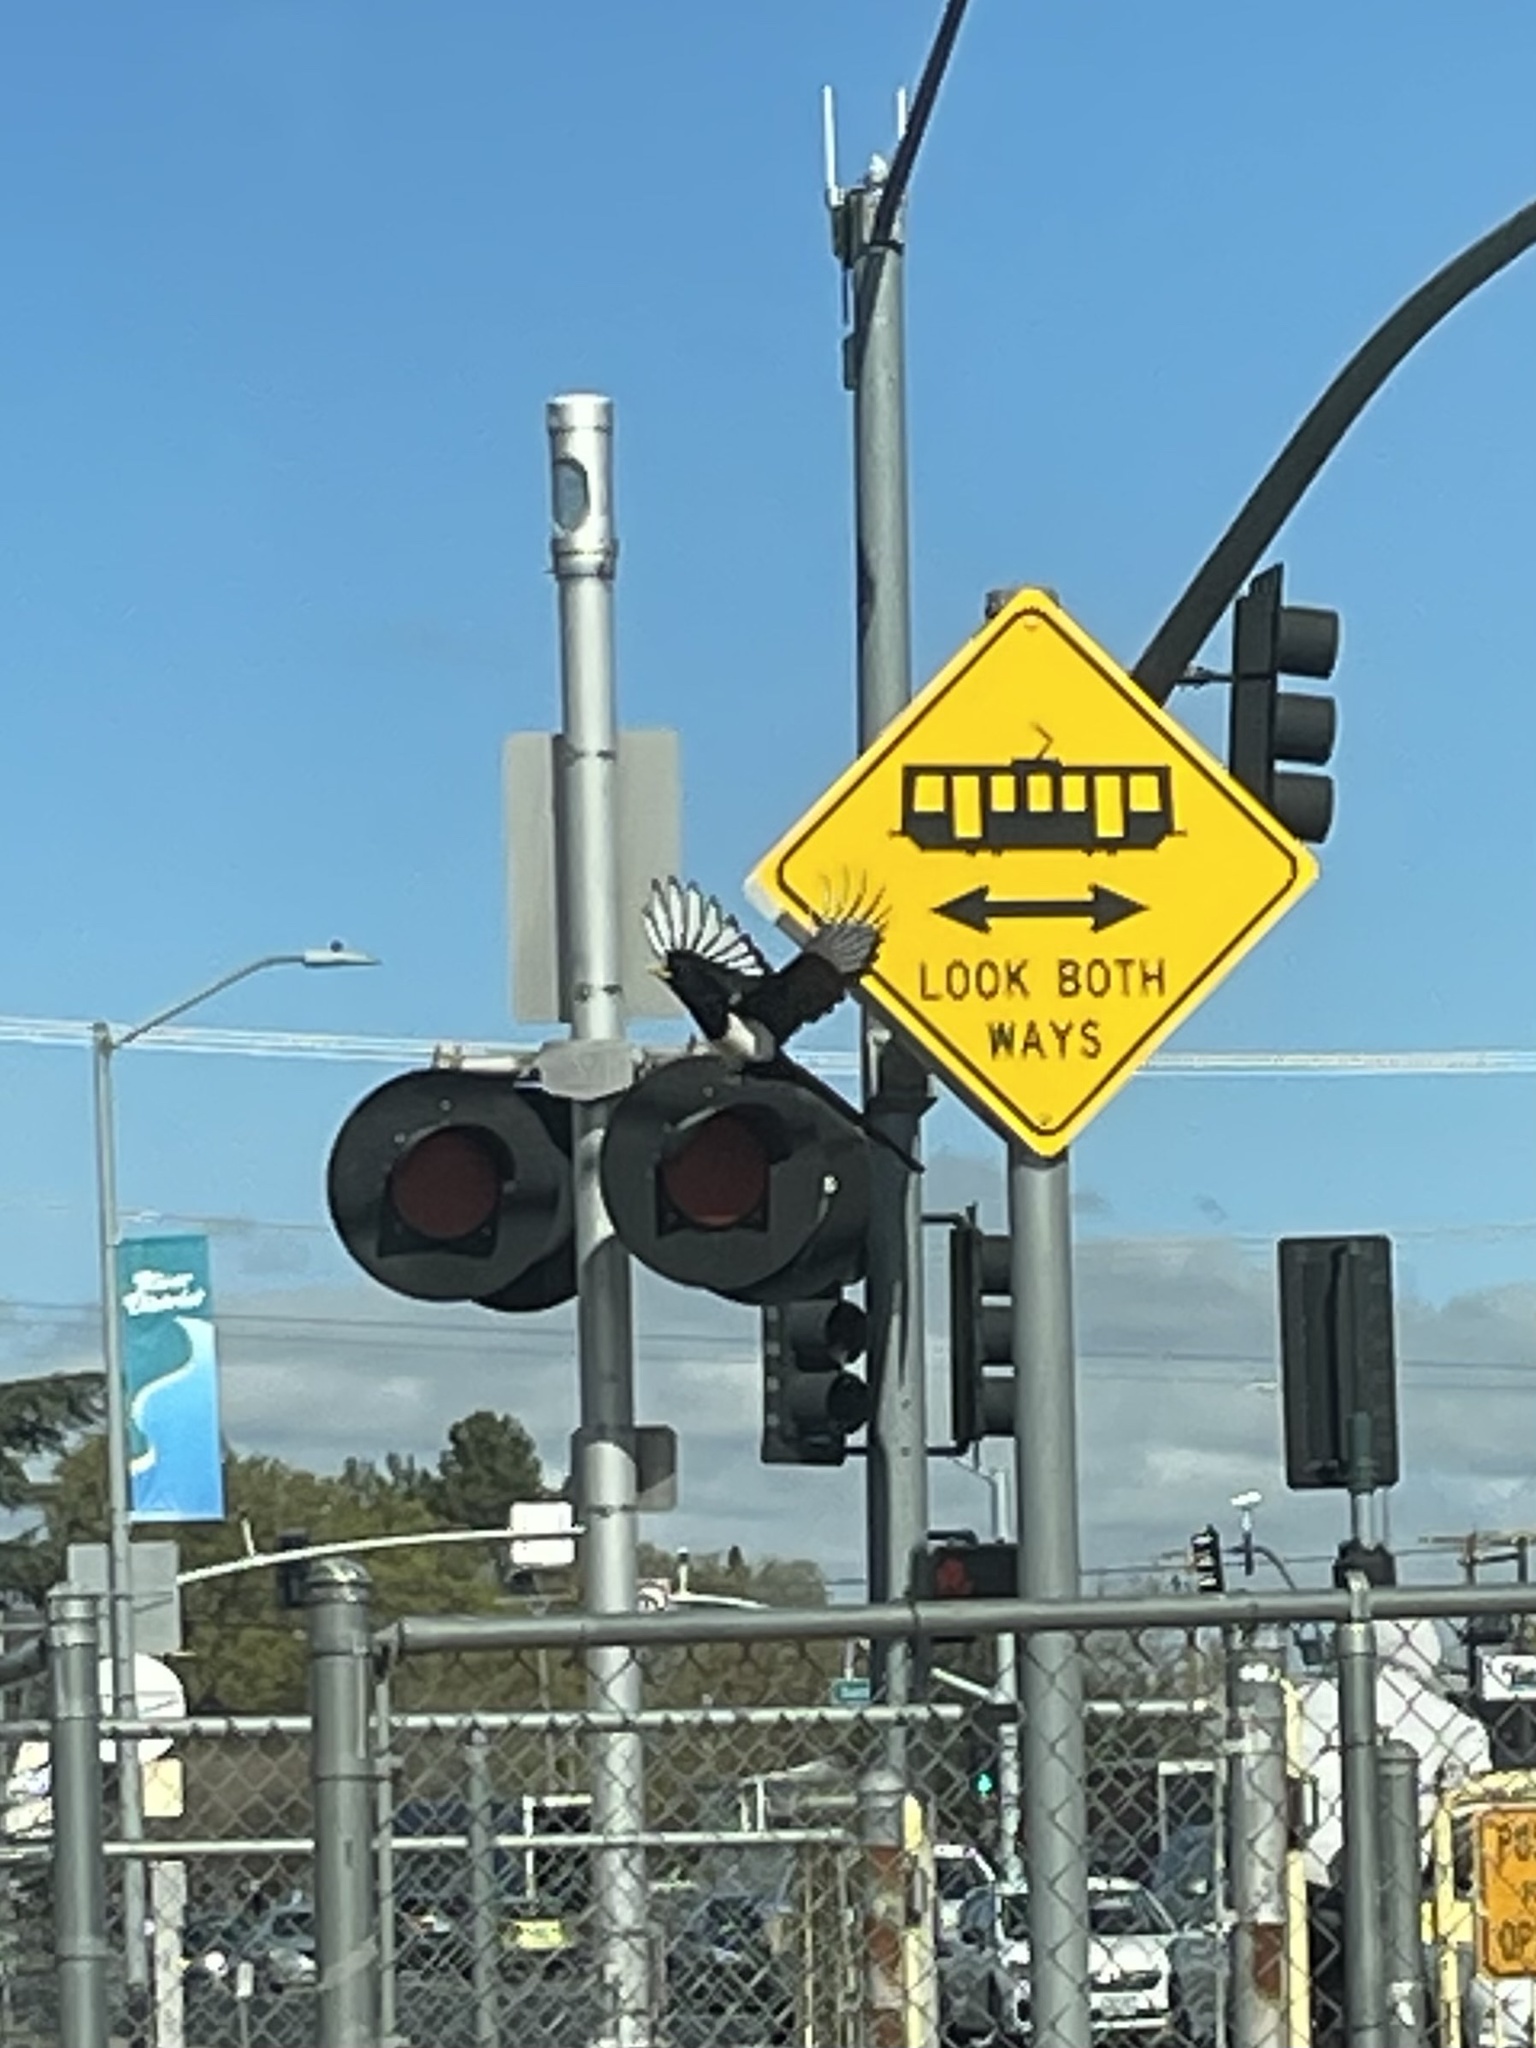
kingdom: Animalia
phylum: Chordata
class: Aves
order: Passeriformes
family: Corvidae
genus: Pica
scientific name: Pica nuttalli
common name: Yellow-billed magpie
